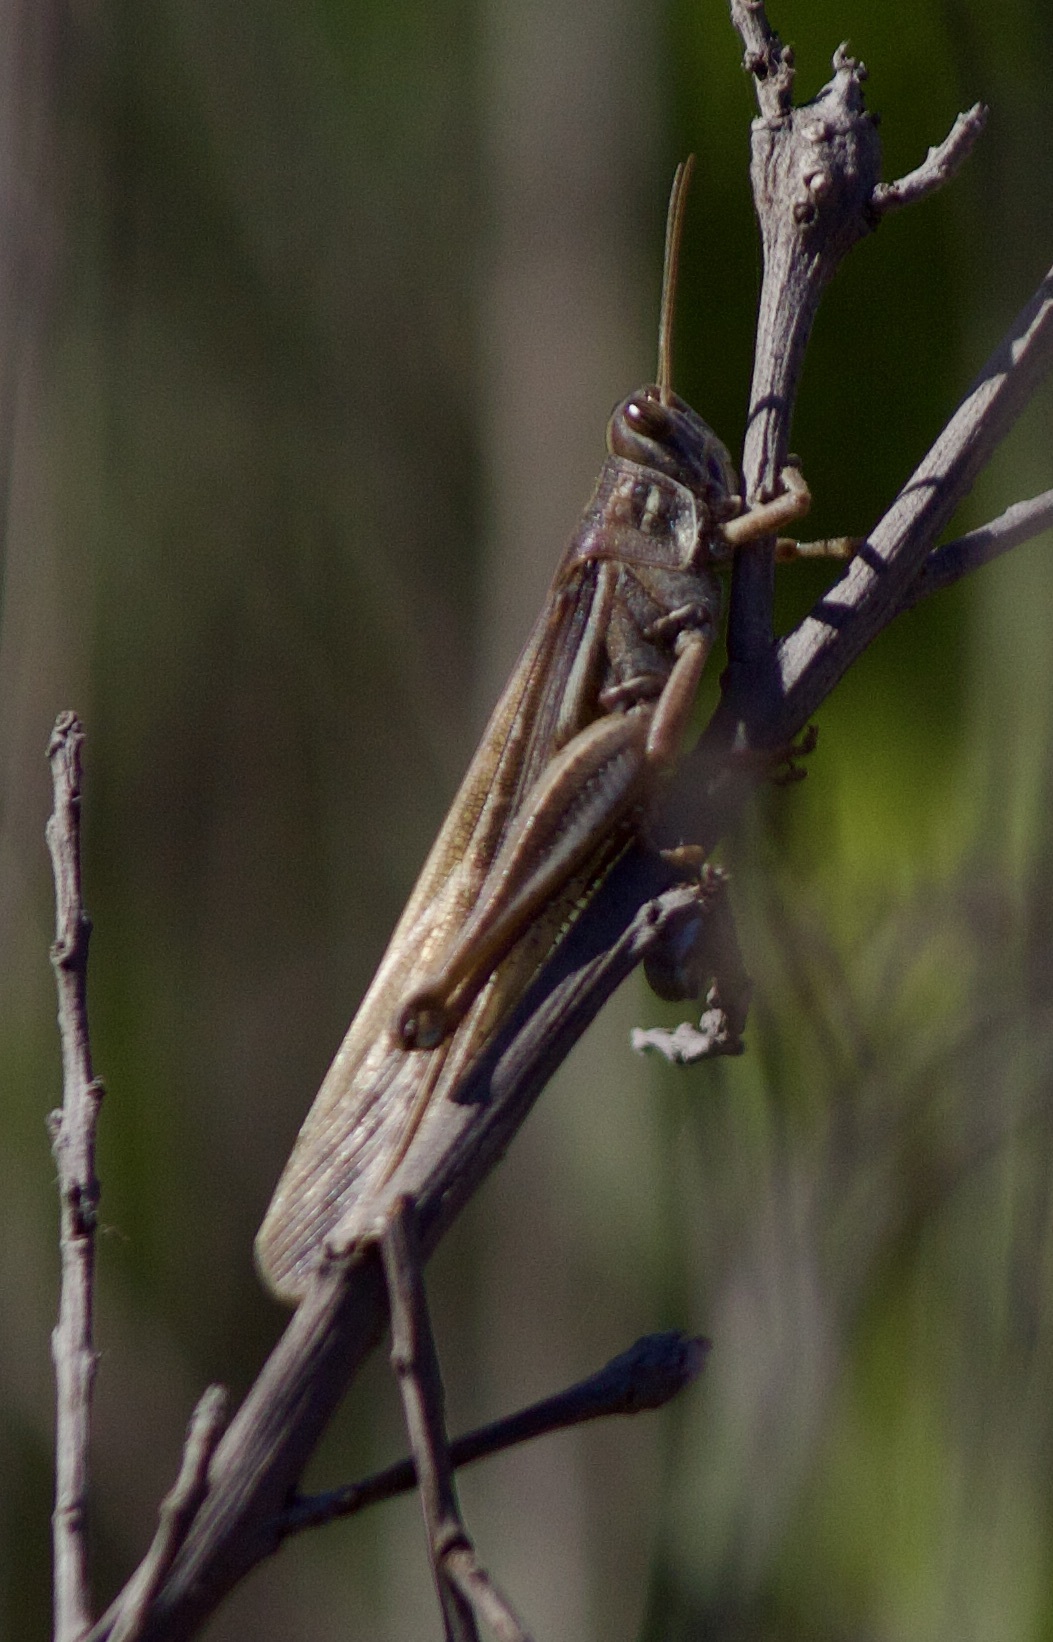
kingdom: Animalia
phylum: Arthropoda
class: Insecta
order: Orthoptera
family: Acrididae
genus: Schistocerca
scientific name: Schistocerca cancellata
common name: South american locust
